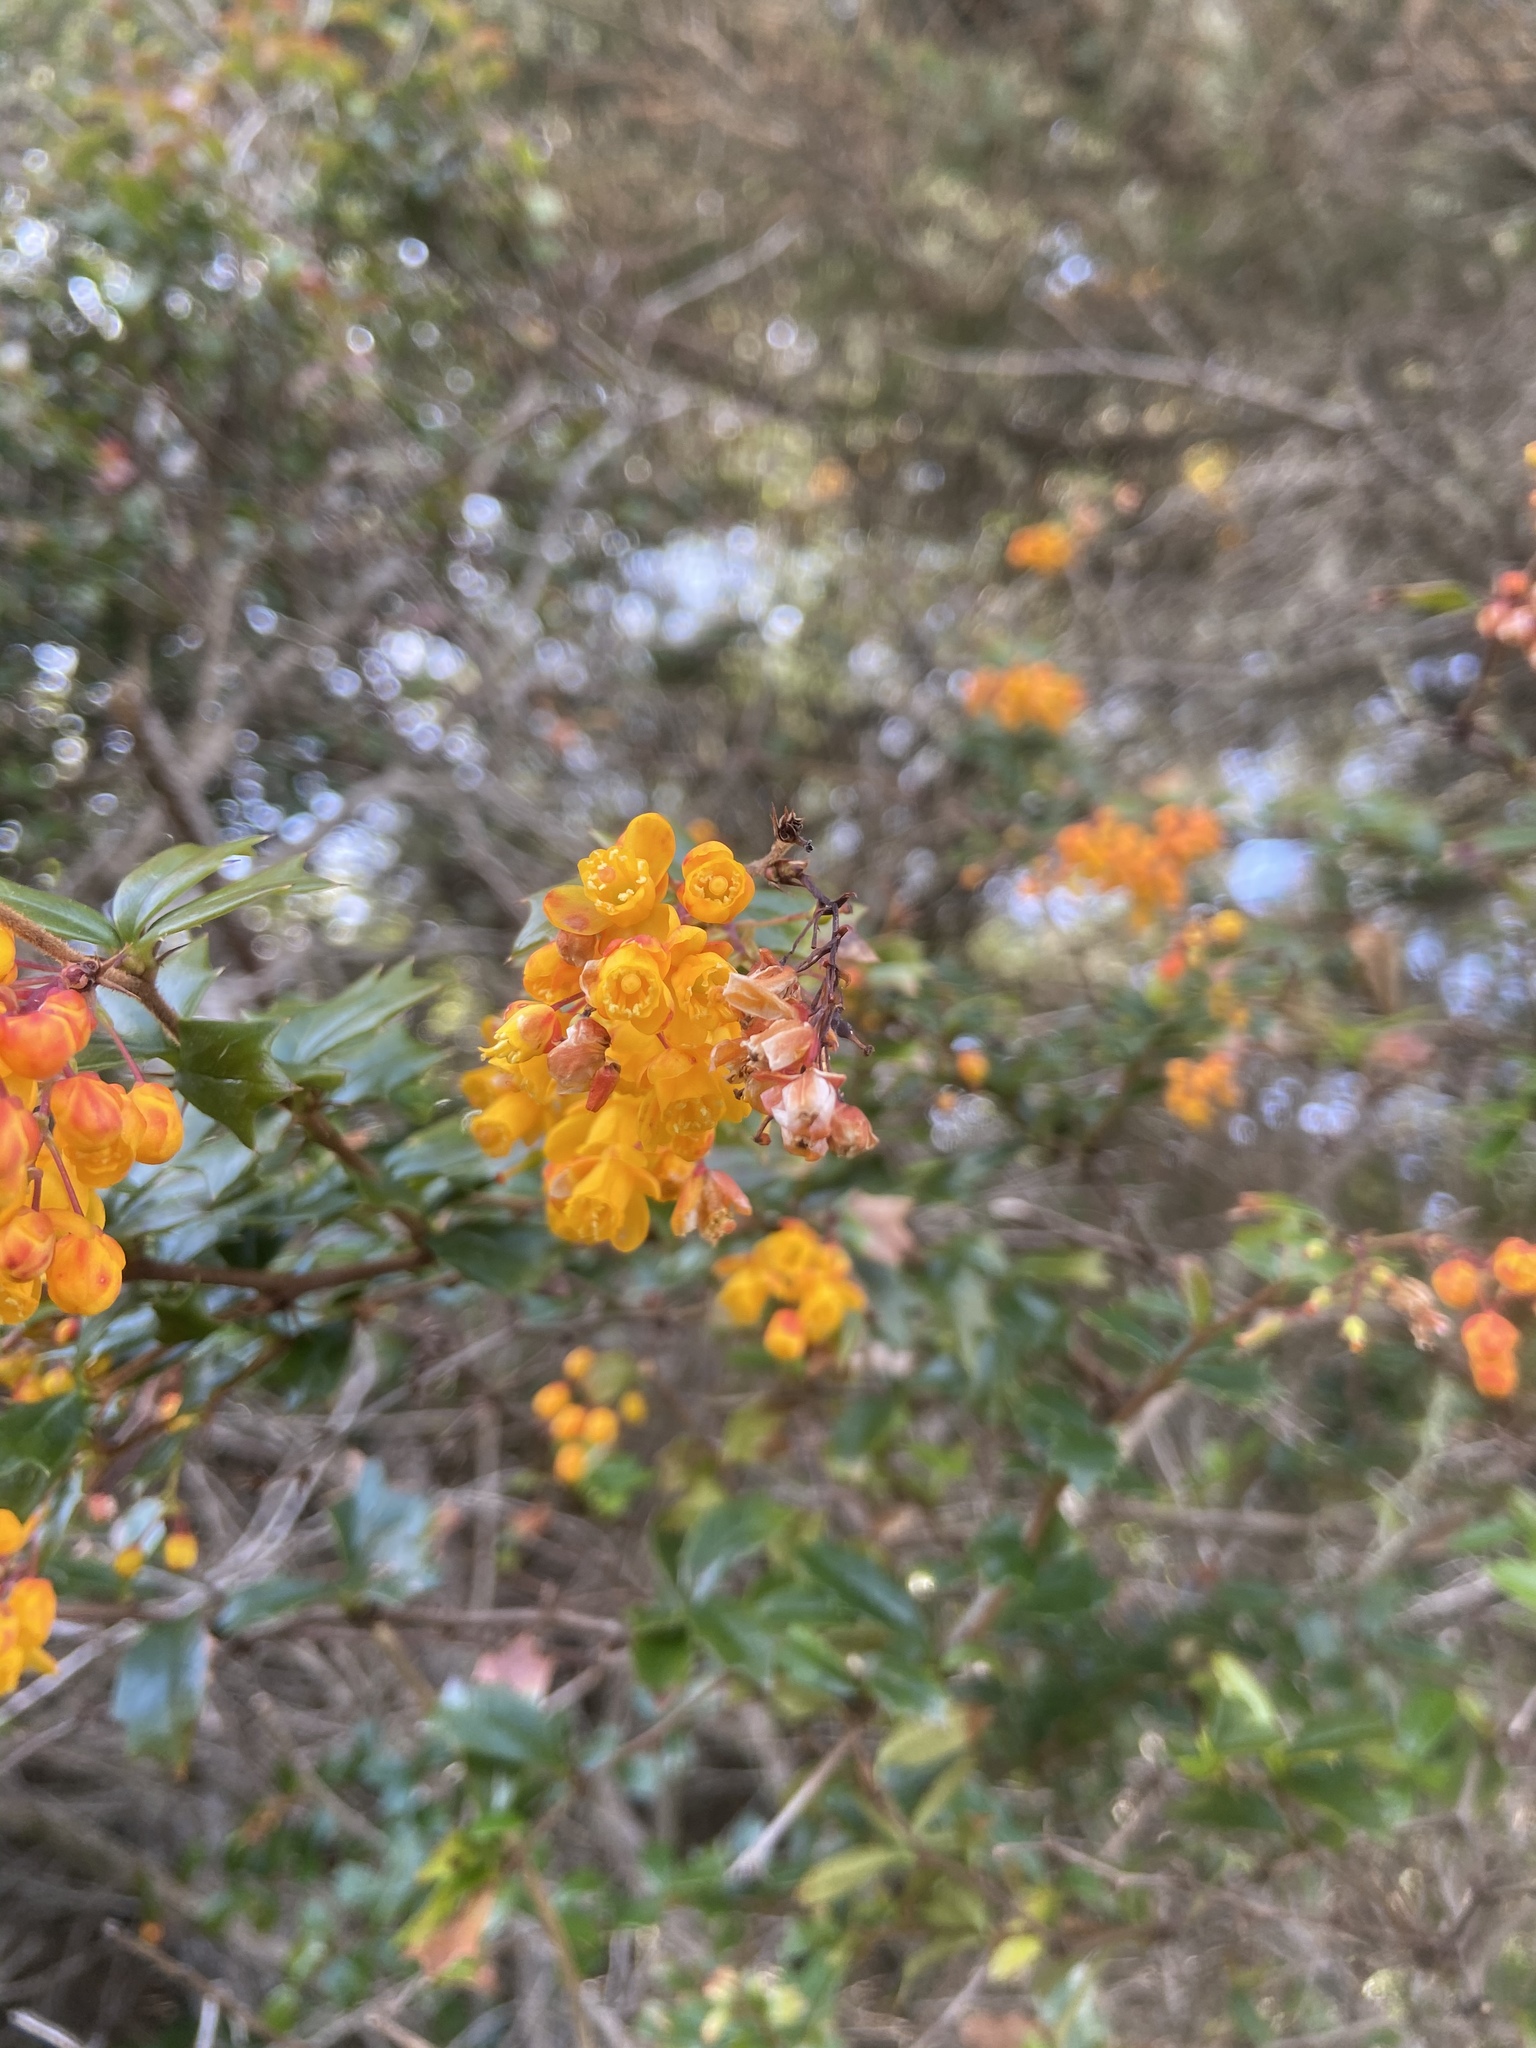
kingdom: Plantae
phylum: Tracheophyta
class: Magnoliopsida
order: Ranunculales
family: Berberidaceae
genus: Berberis
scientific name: Berberis darwinii
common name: Darwin's barberry
